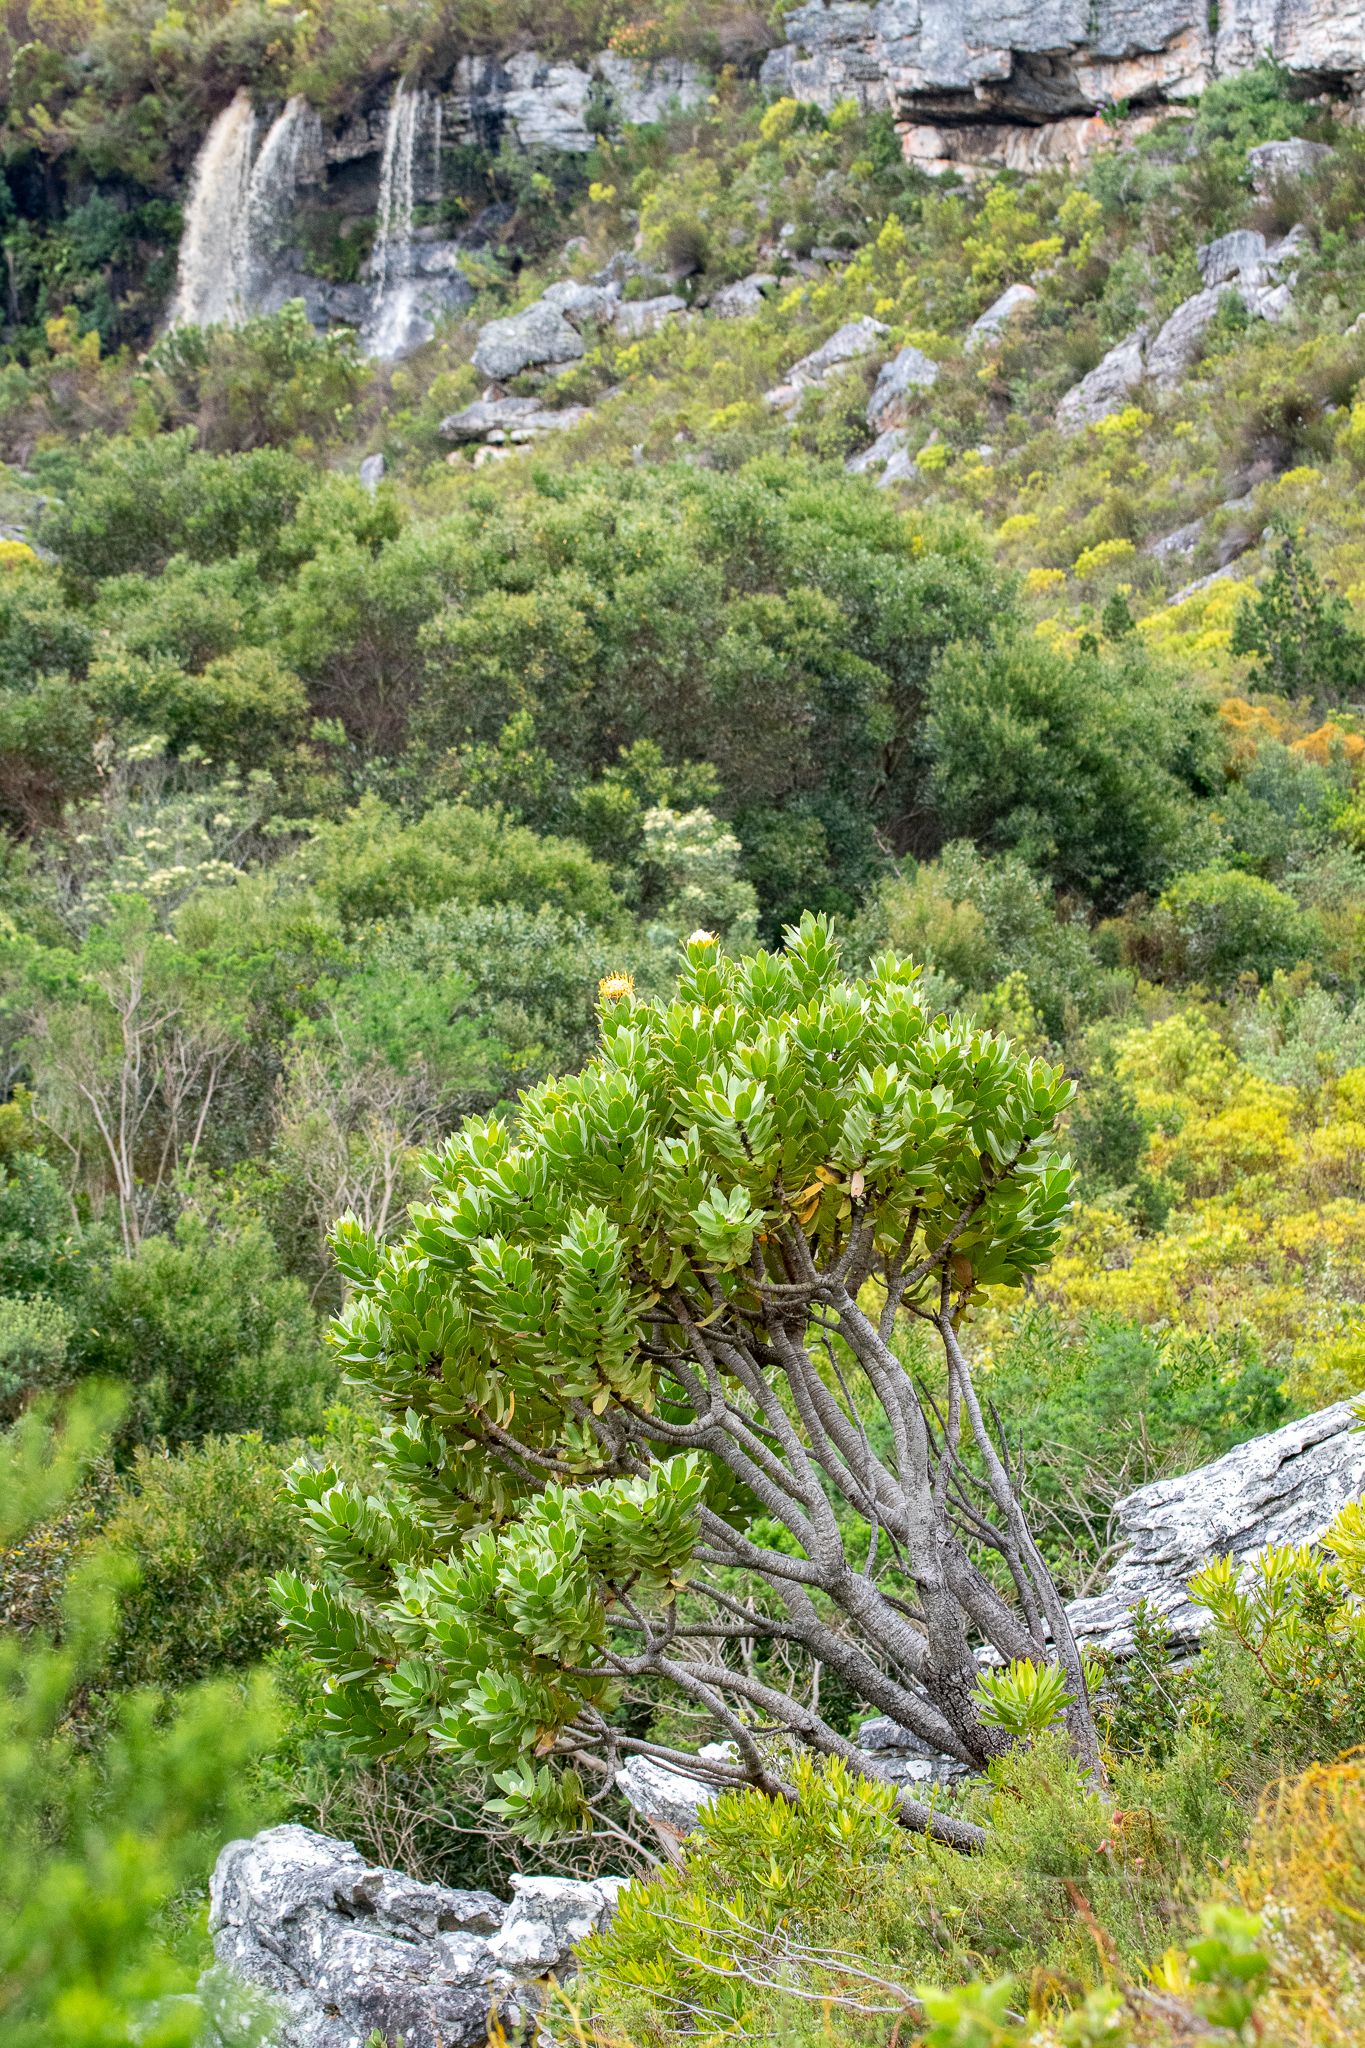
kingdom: Plantae
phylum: Tracheophyta
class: Magnoliopsida
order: Proteales
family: Proteaceae
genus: Leucospermum
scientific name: Leucospermum conocarpodendron
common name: Tree pincushion
